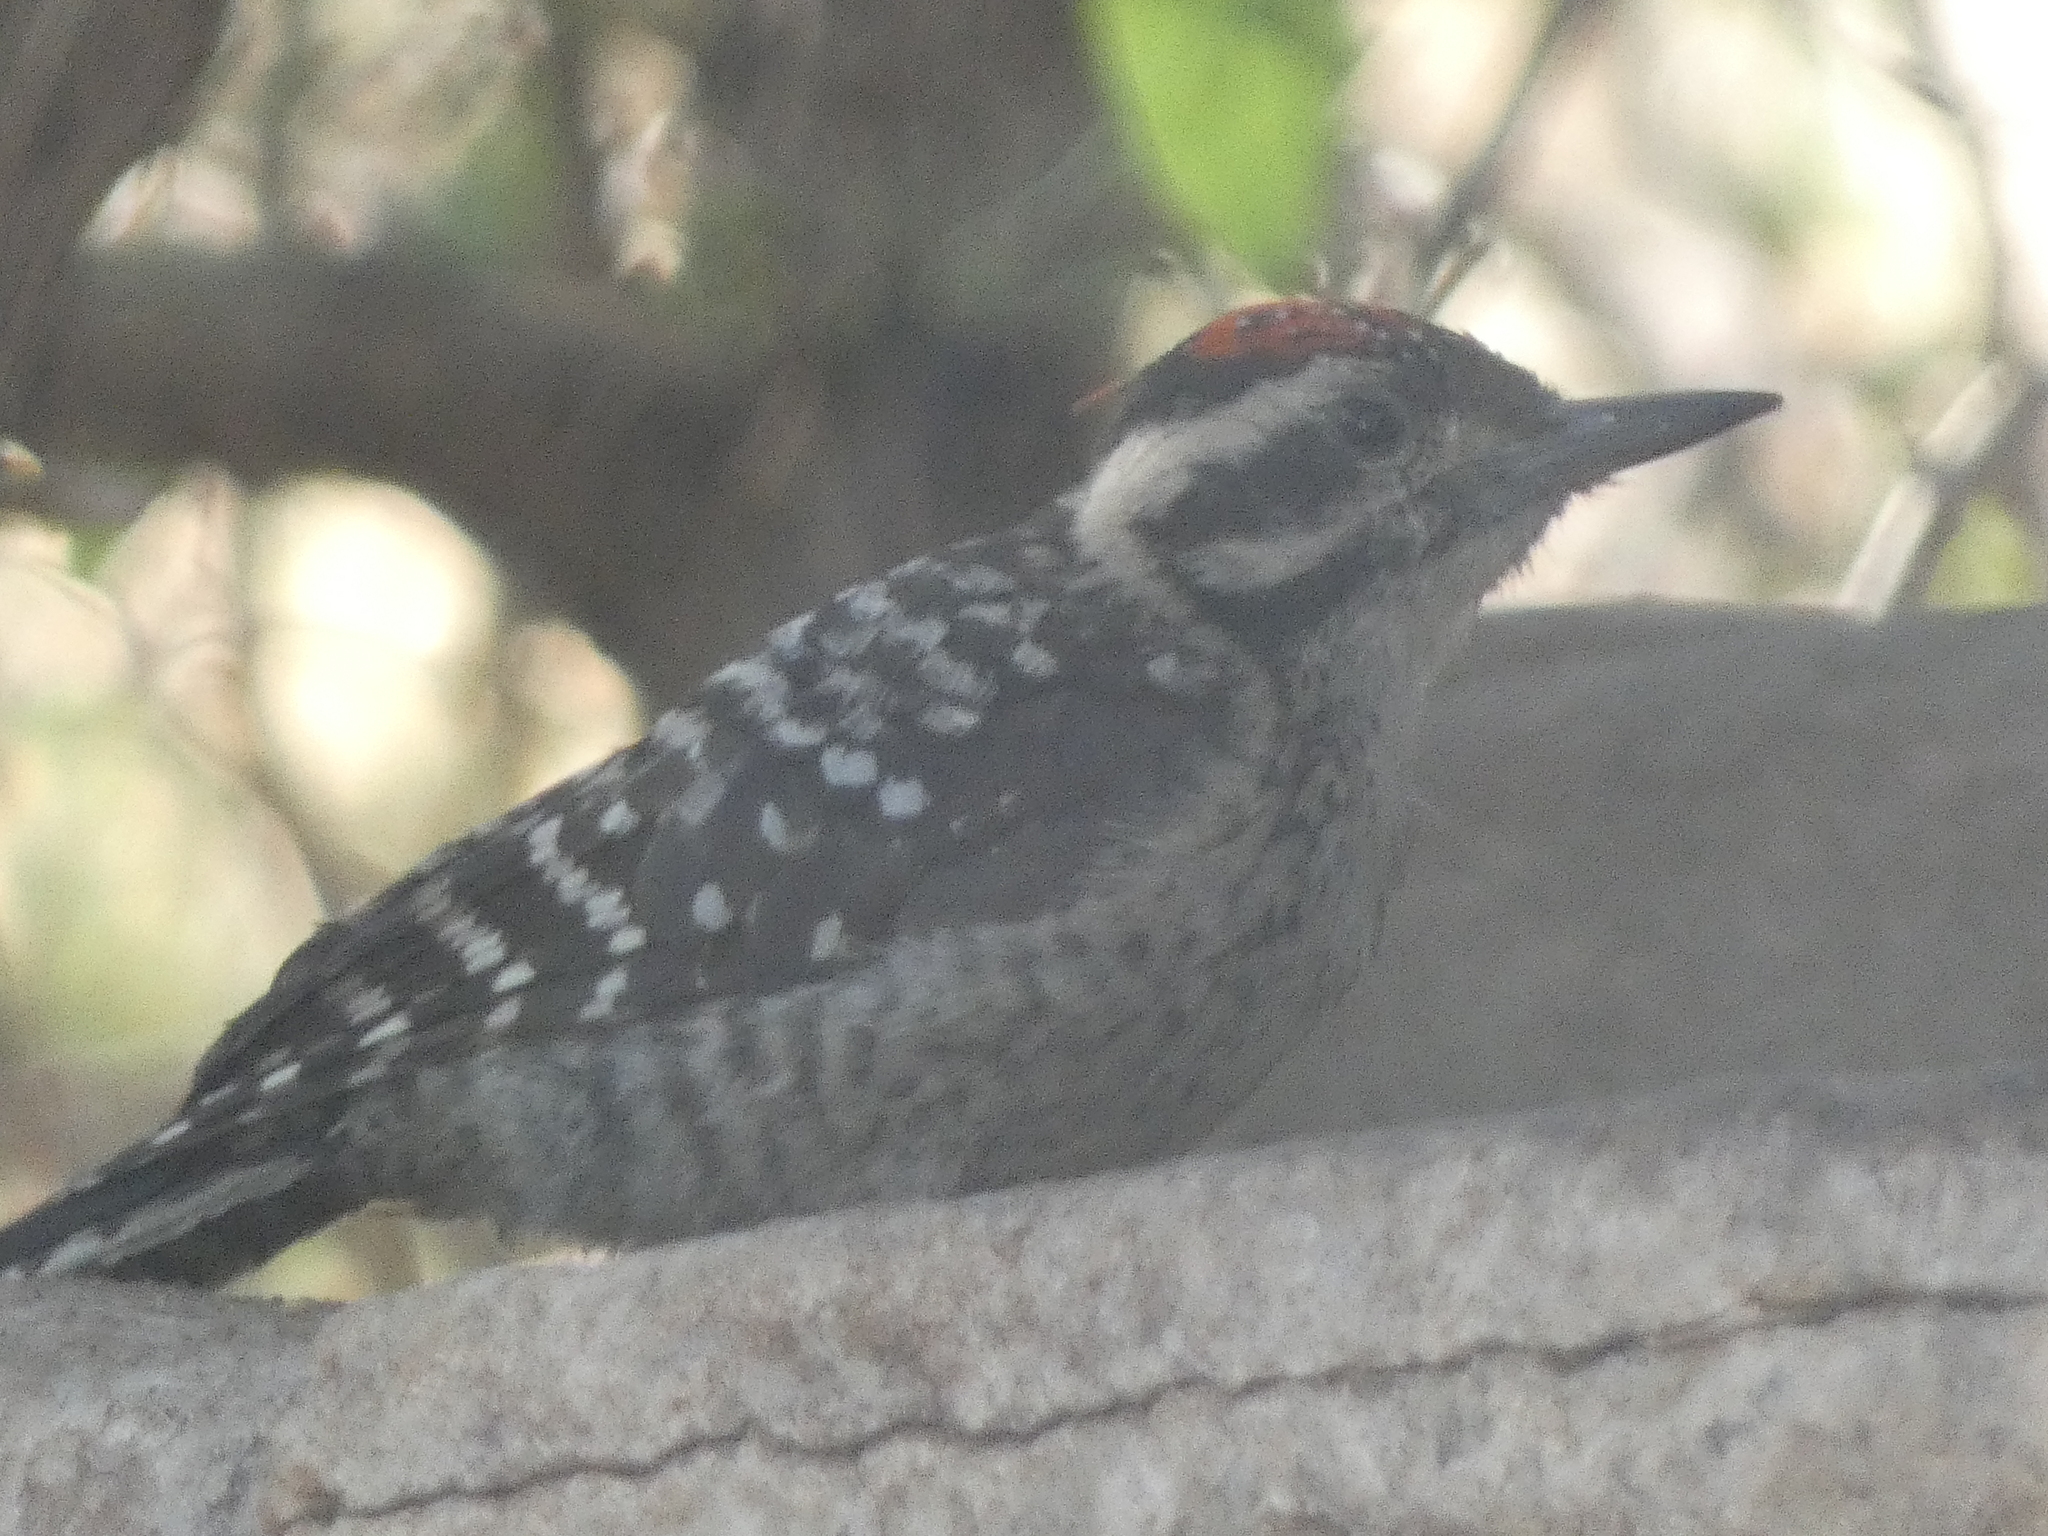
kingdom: Animalia
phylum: Chordata
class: Aves
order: Piciformes
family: Picidae
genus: Dryobates
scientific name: Dryobates scalaris
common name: Ladder-backed woodpecker
